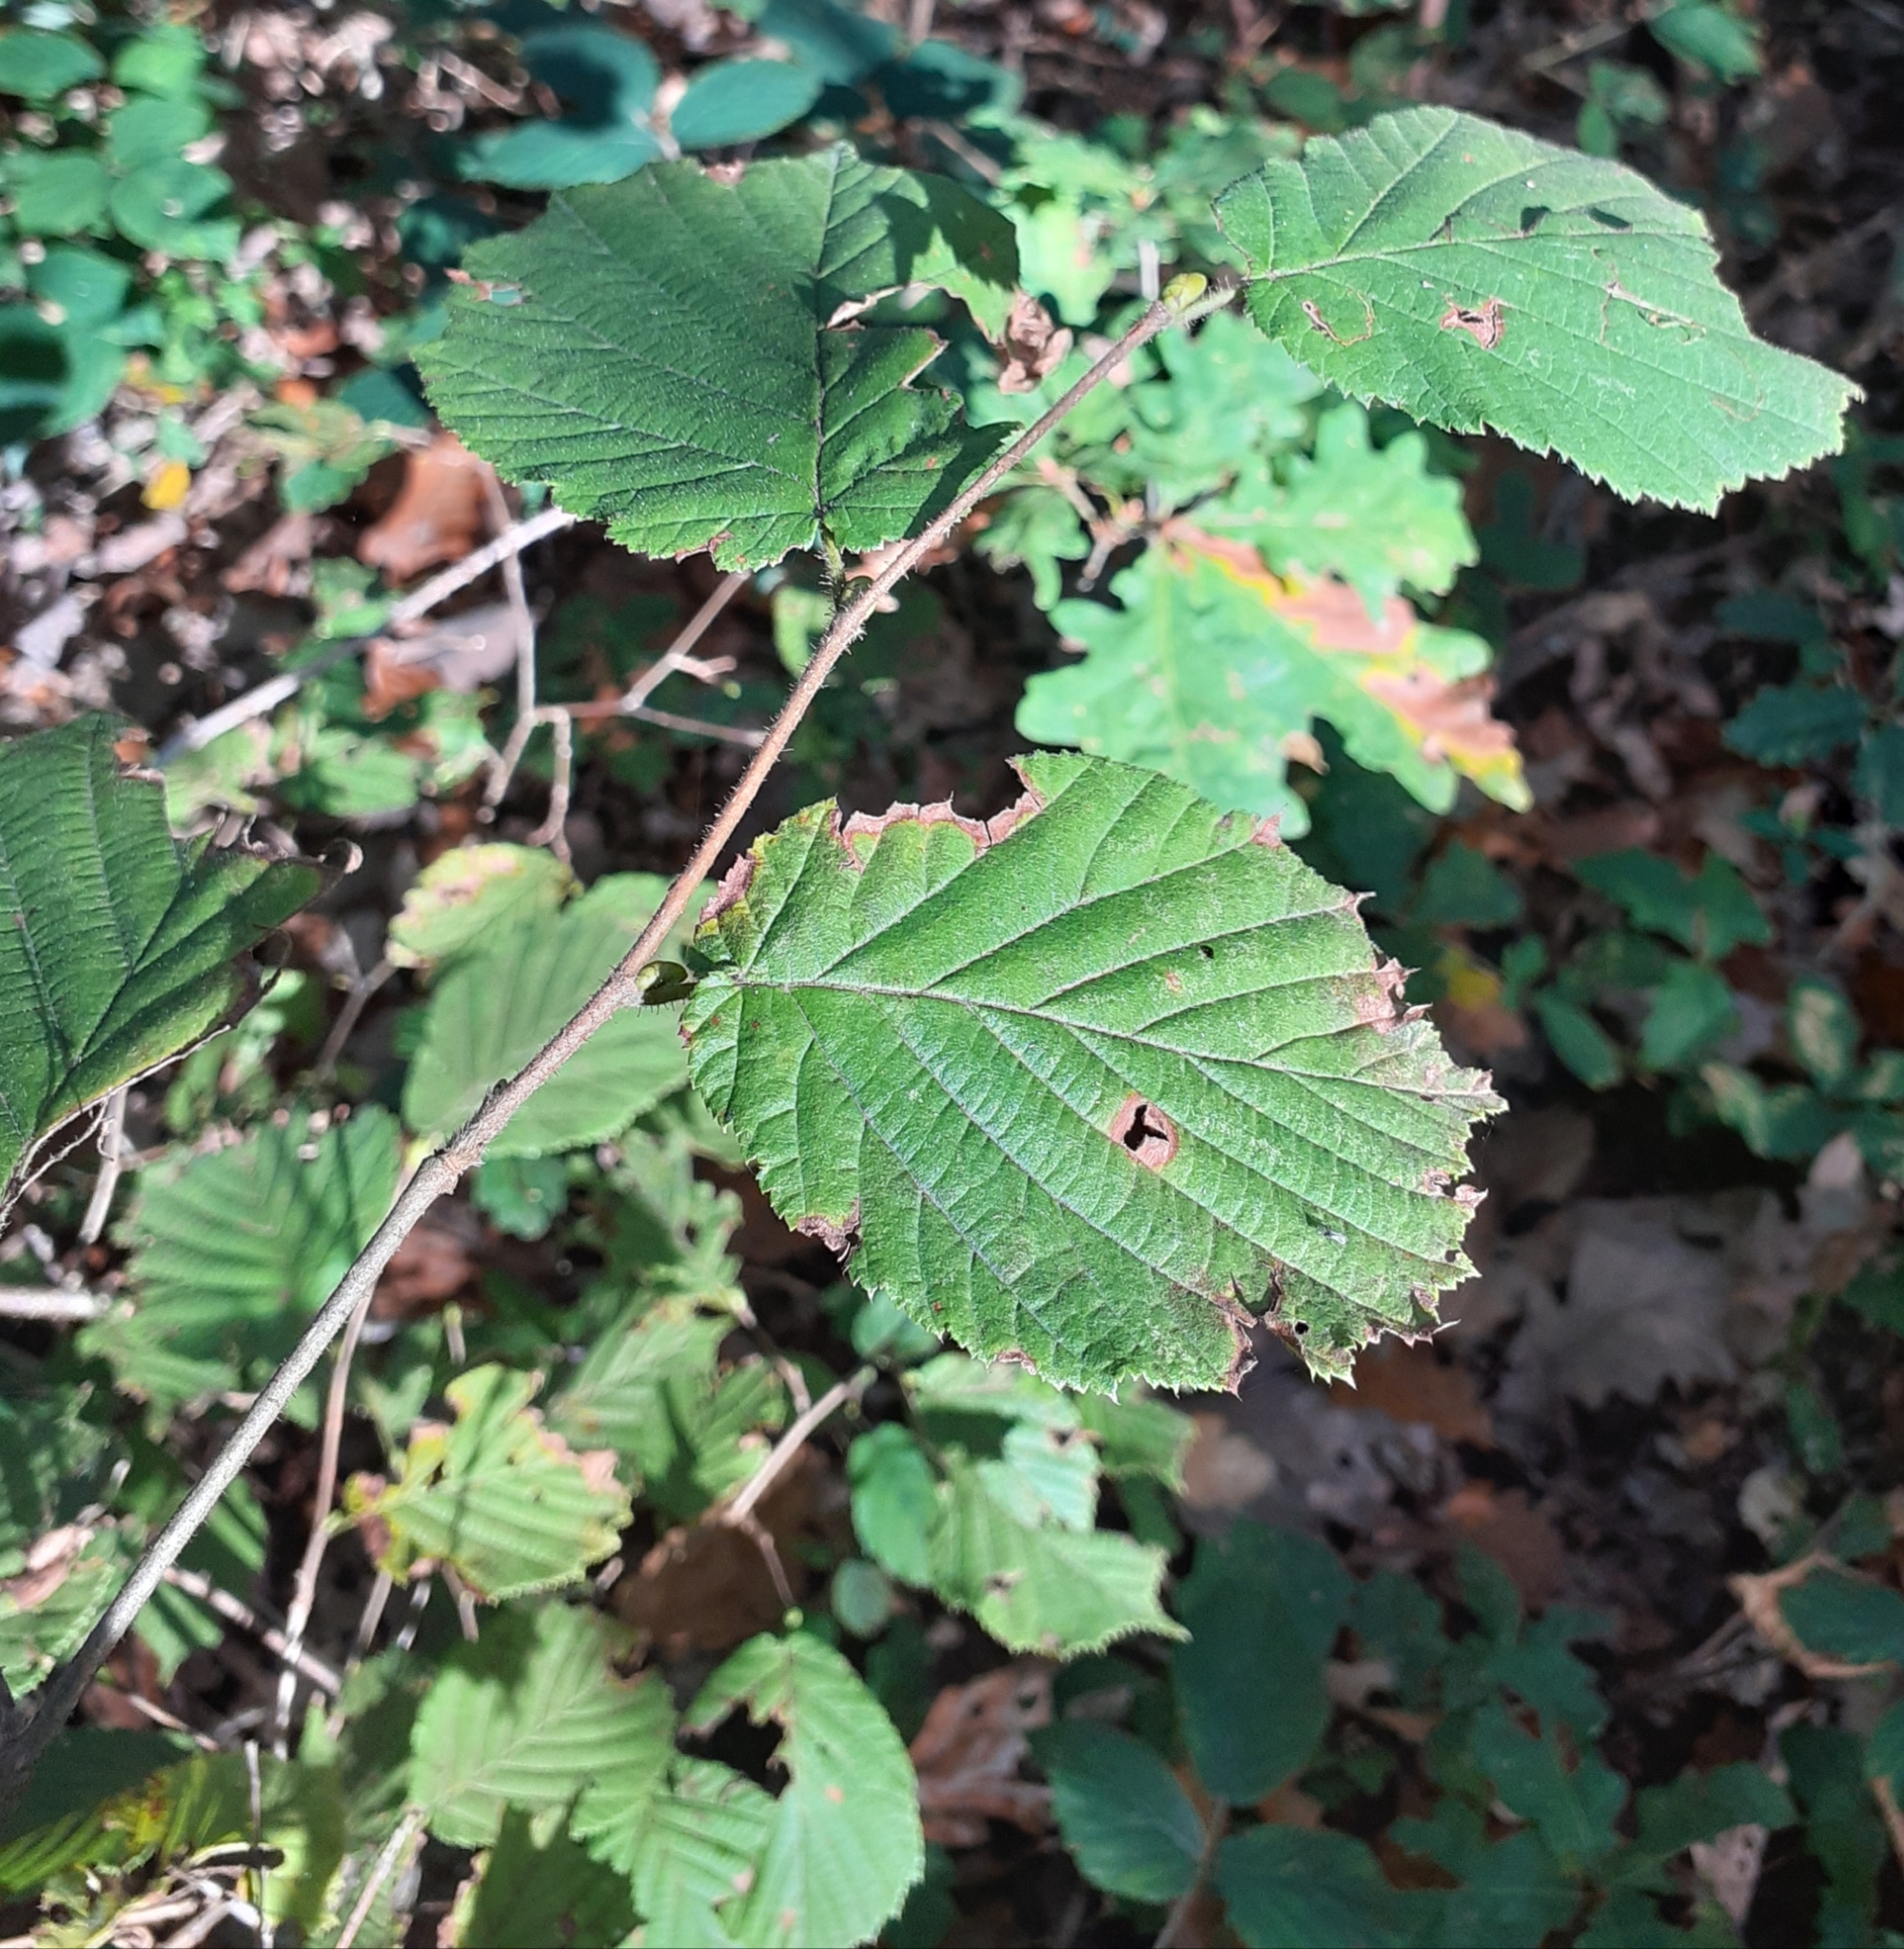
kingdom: Plantae
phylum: Tracheophyta
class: Magnoliopsida
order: Fagales
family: Betulaceae
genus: Corylus
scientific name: Corylus avellana
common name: European hazel
